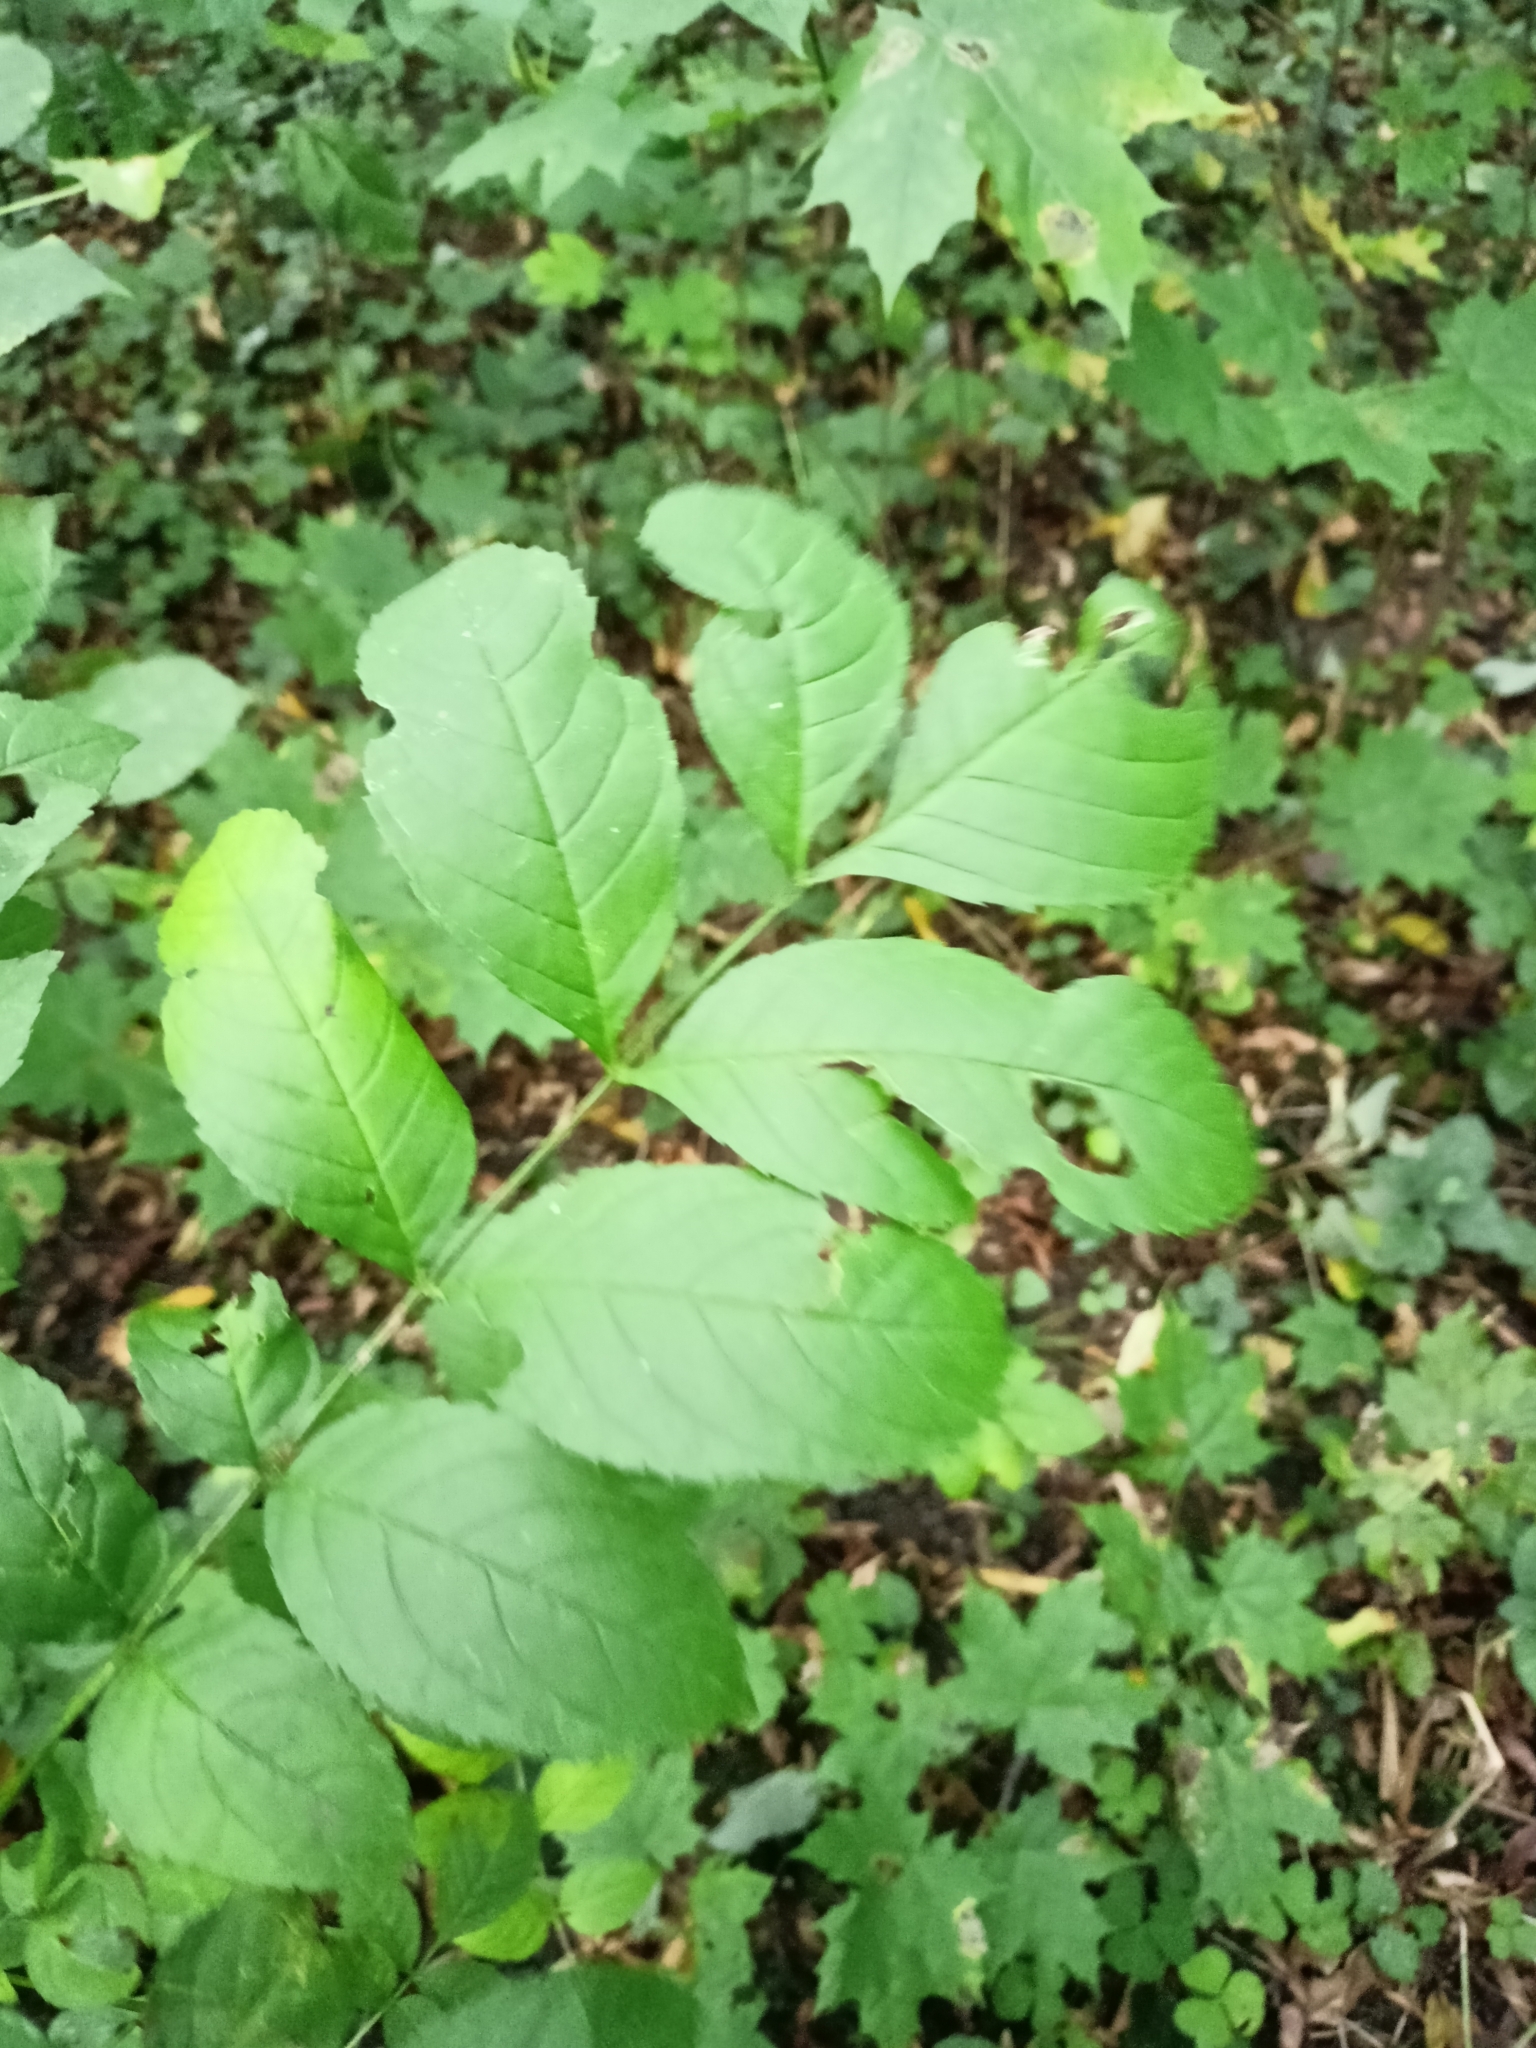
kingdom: Plantae
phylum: Tracheophyta
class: Magnoliopsida
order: Lamiales
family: Oleaceae
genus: Fraxinus
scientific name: Fraxinus excelsior
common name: European ash
